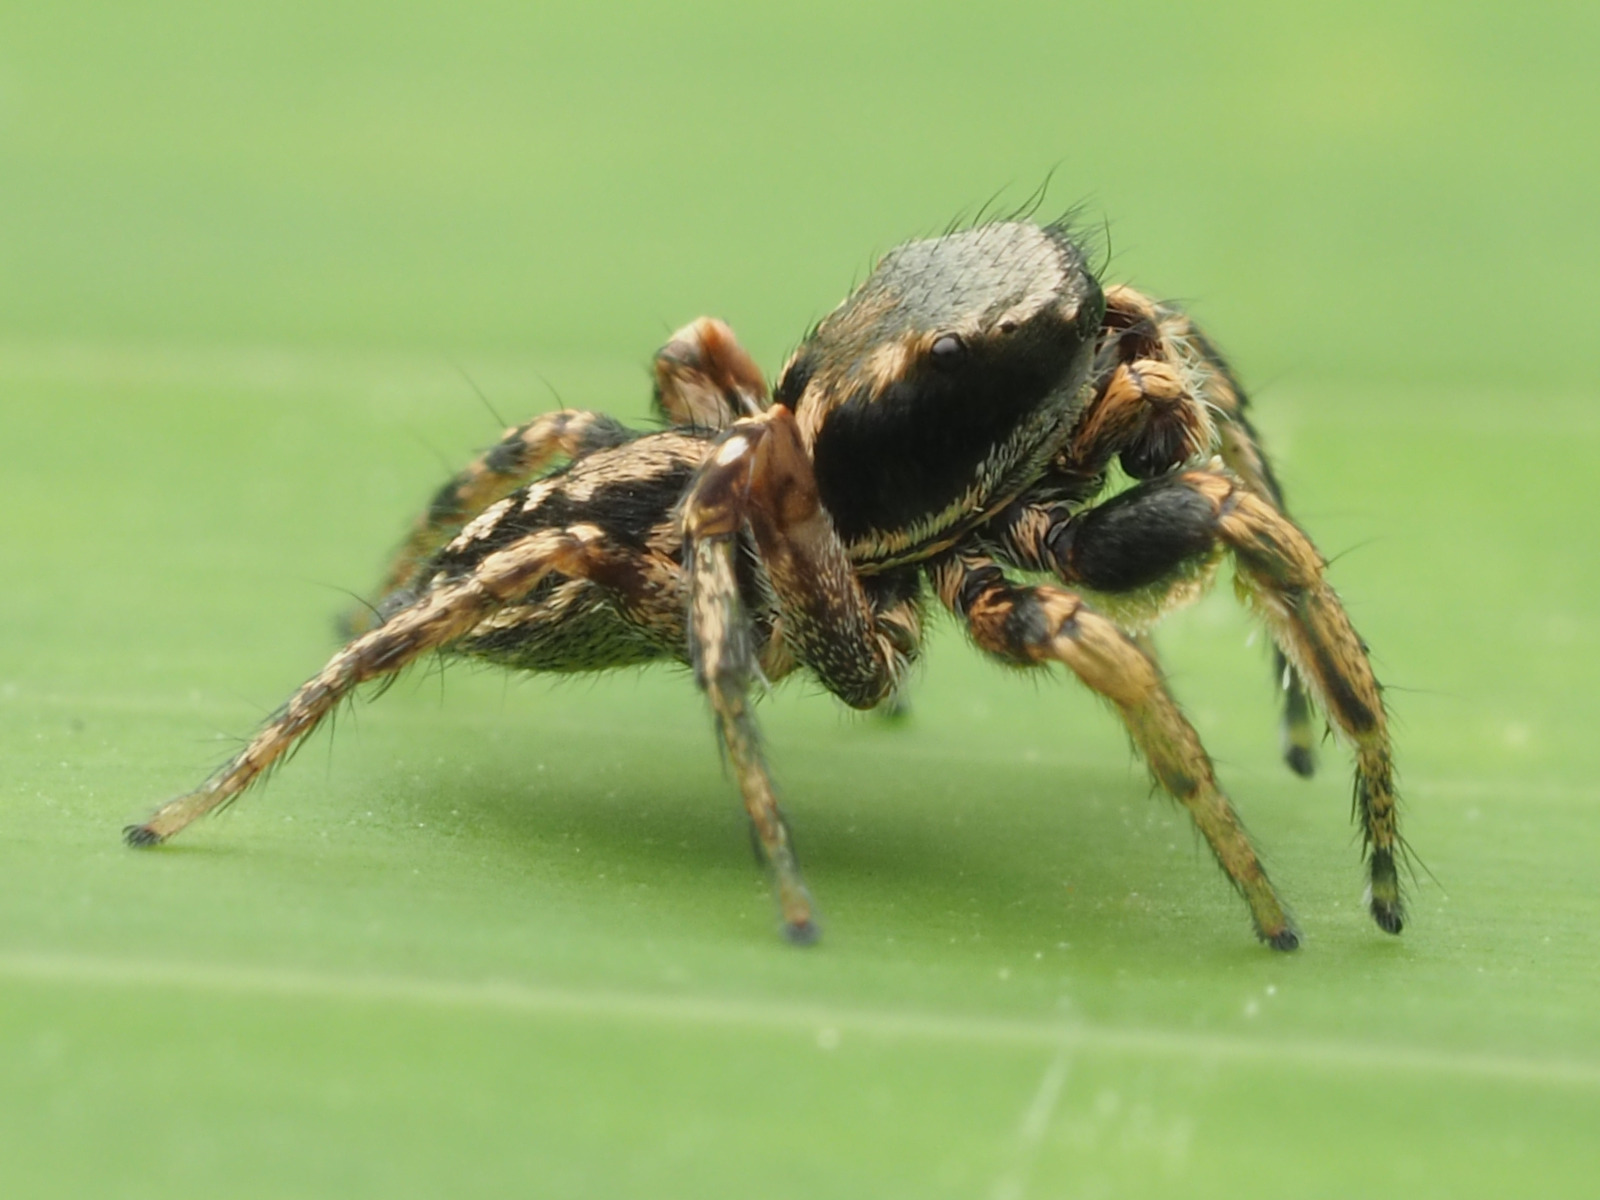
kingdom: Animalia
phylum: Arthropoda
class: Arachnida
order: Araneae
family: Salticidae
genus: Habronattus
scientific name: Habronattus mexicanus
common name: Jumping spiders
